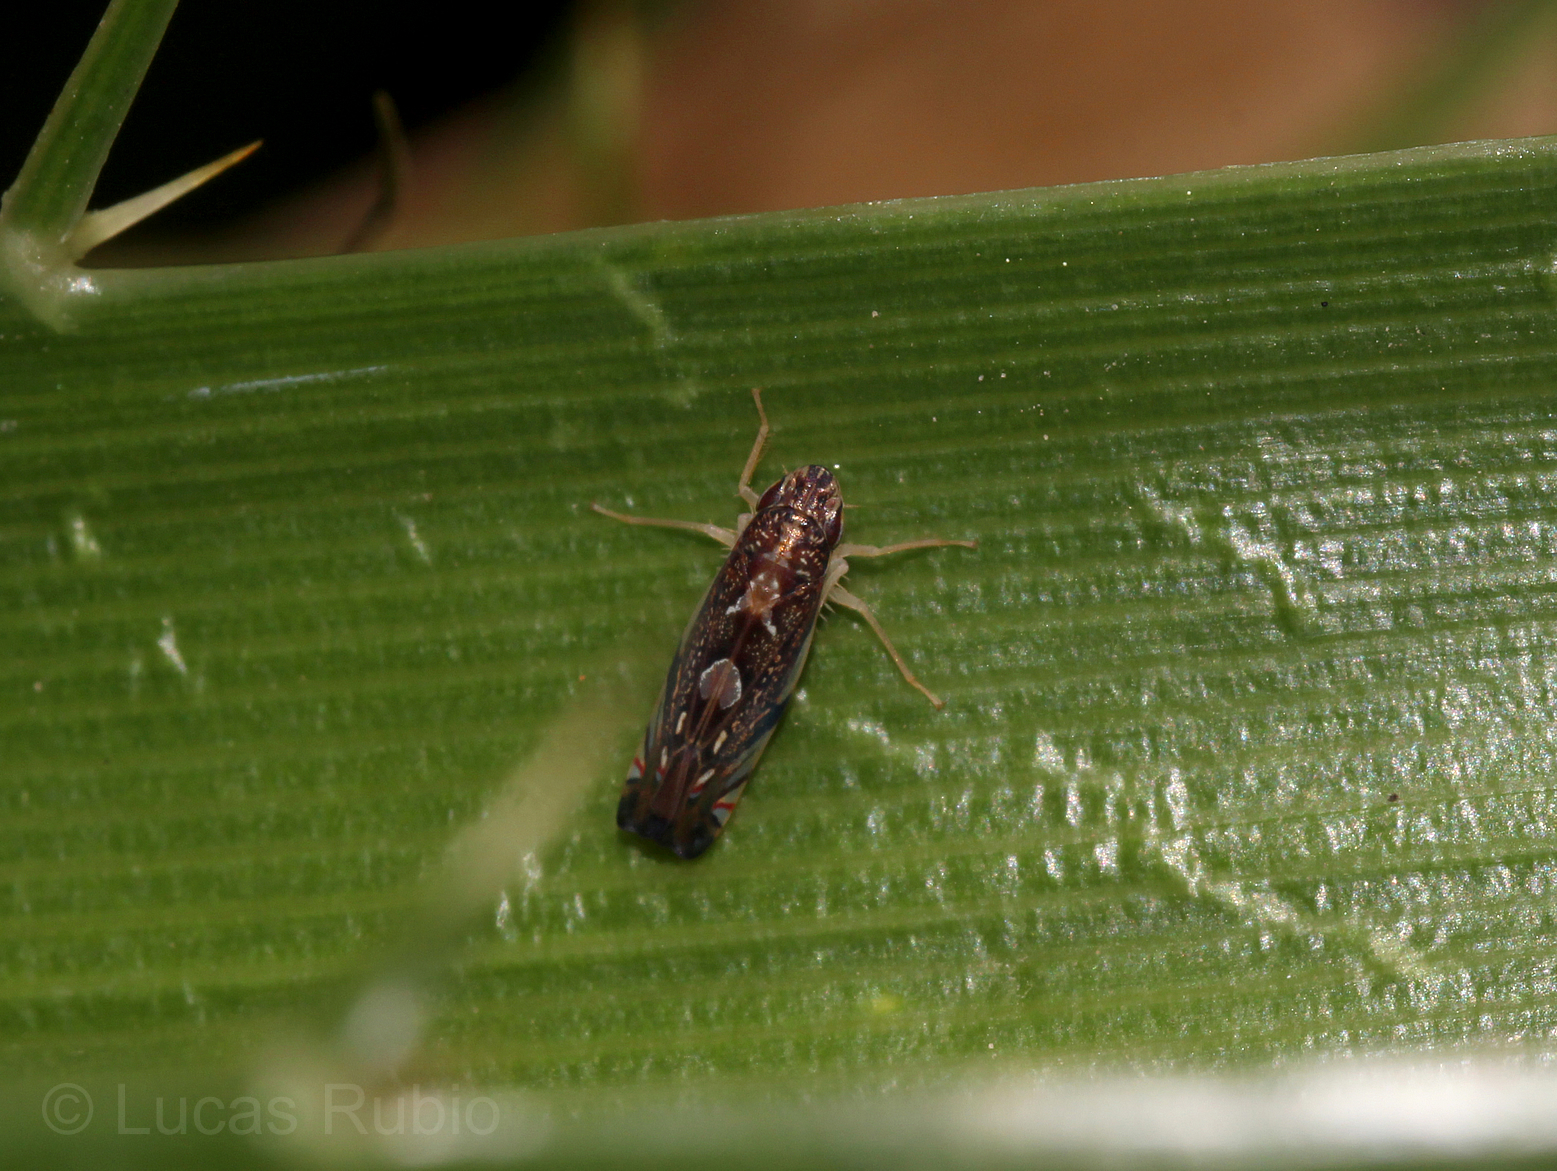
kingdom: Animalia
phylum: Arthropoda
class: Insecta
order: Hemiptera
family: Cicadellidae
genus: Diedrocephala
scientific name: Diedrocephala youngi
